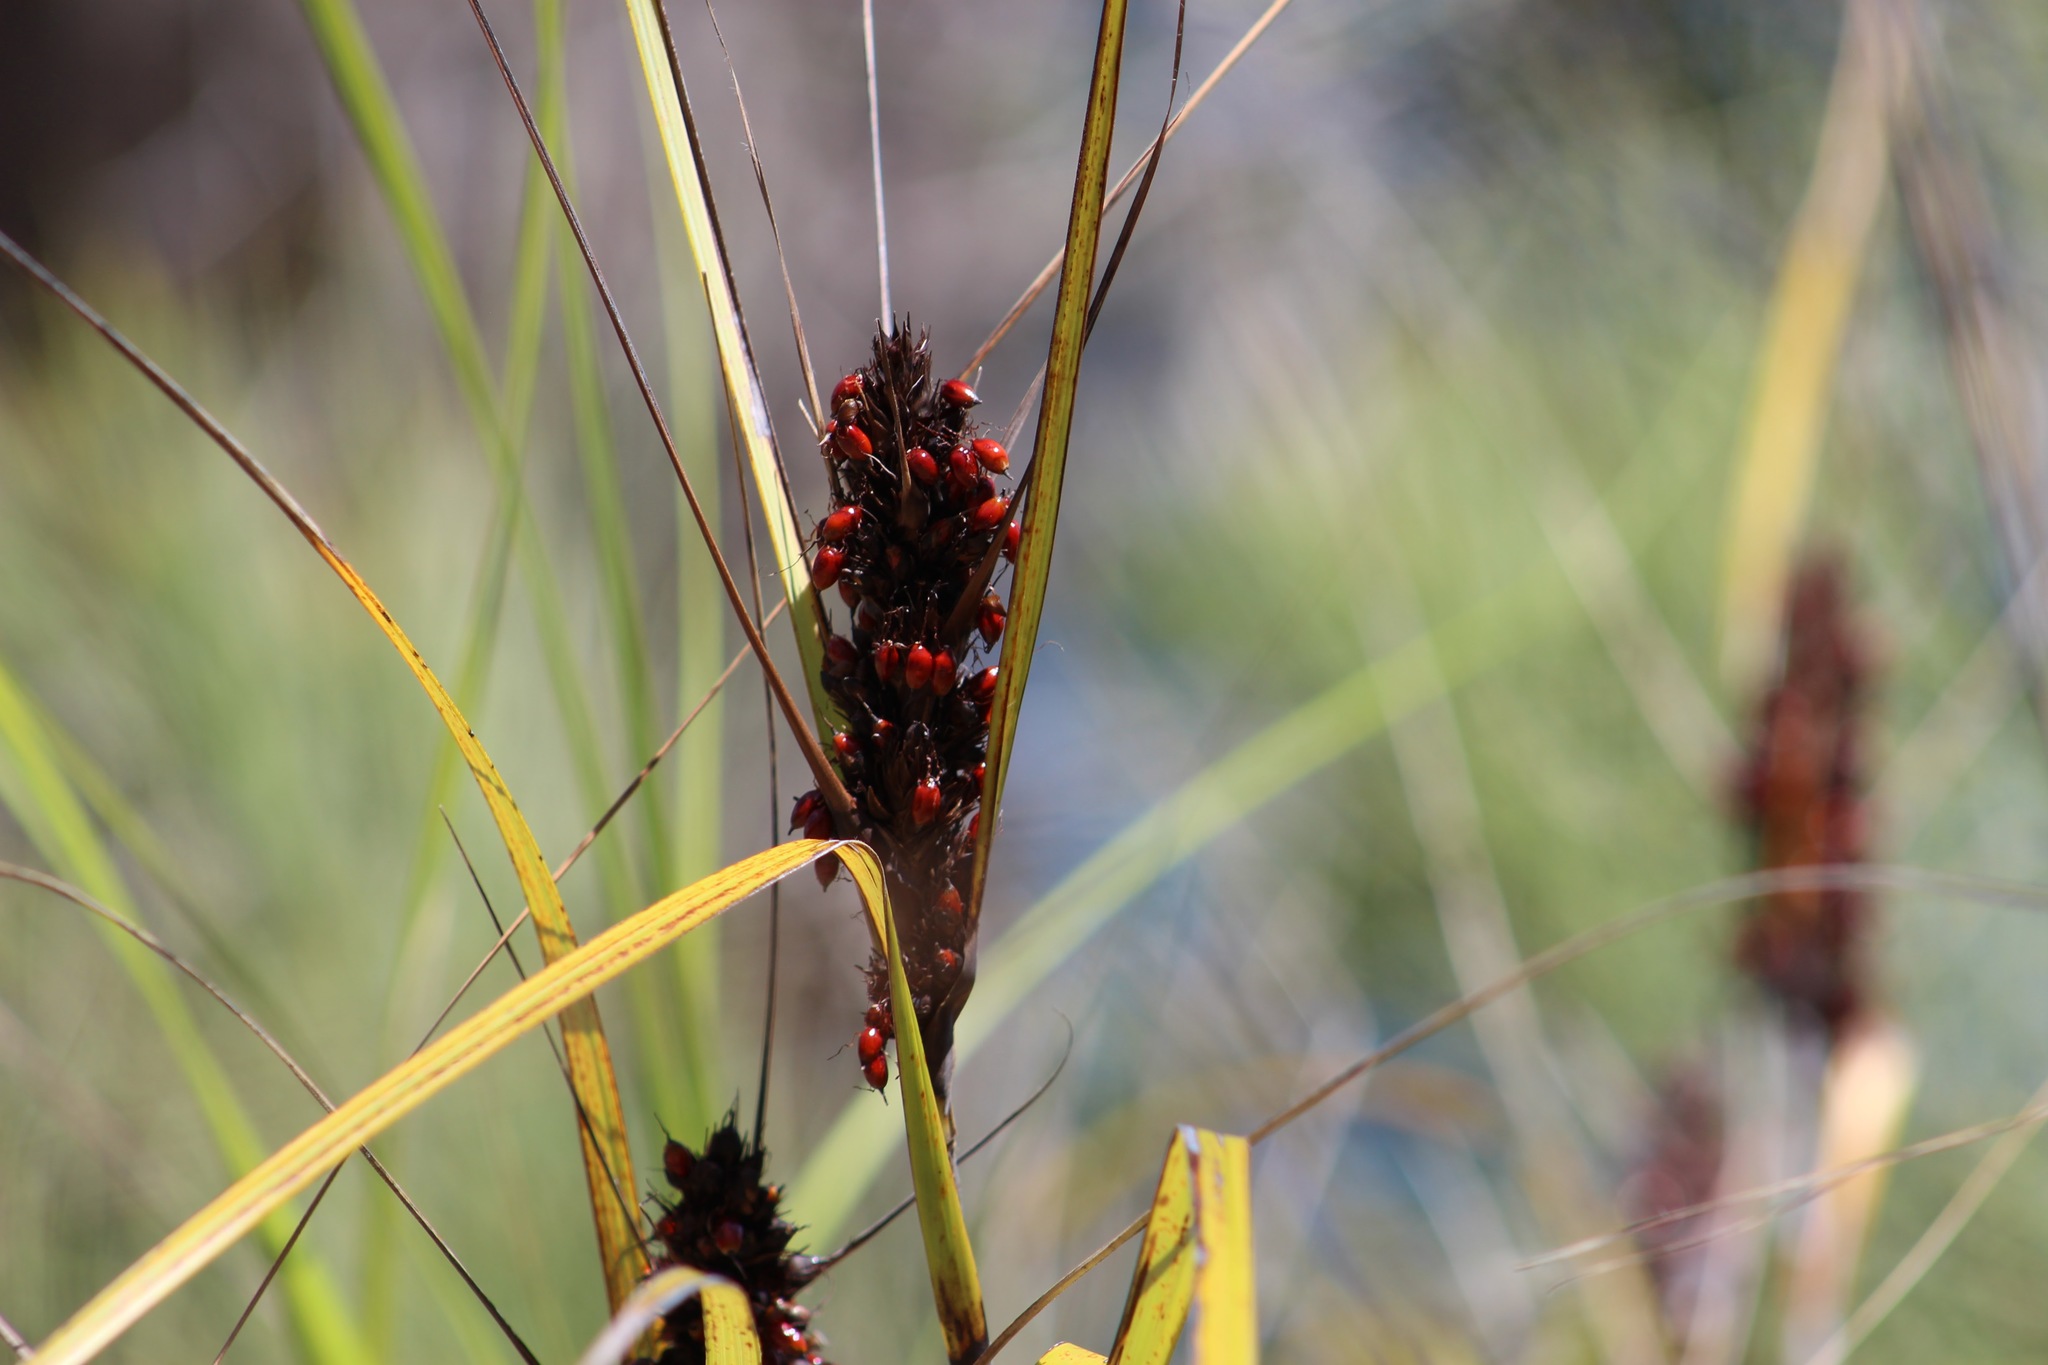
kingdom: Plantae
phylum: Tracheophyta
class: Liliopsida
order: Poales
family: Cyperaceae
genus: Gahnia
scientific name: Gahnia aspera
